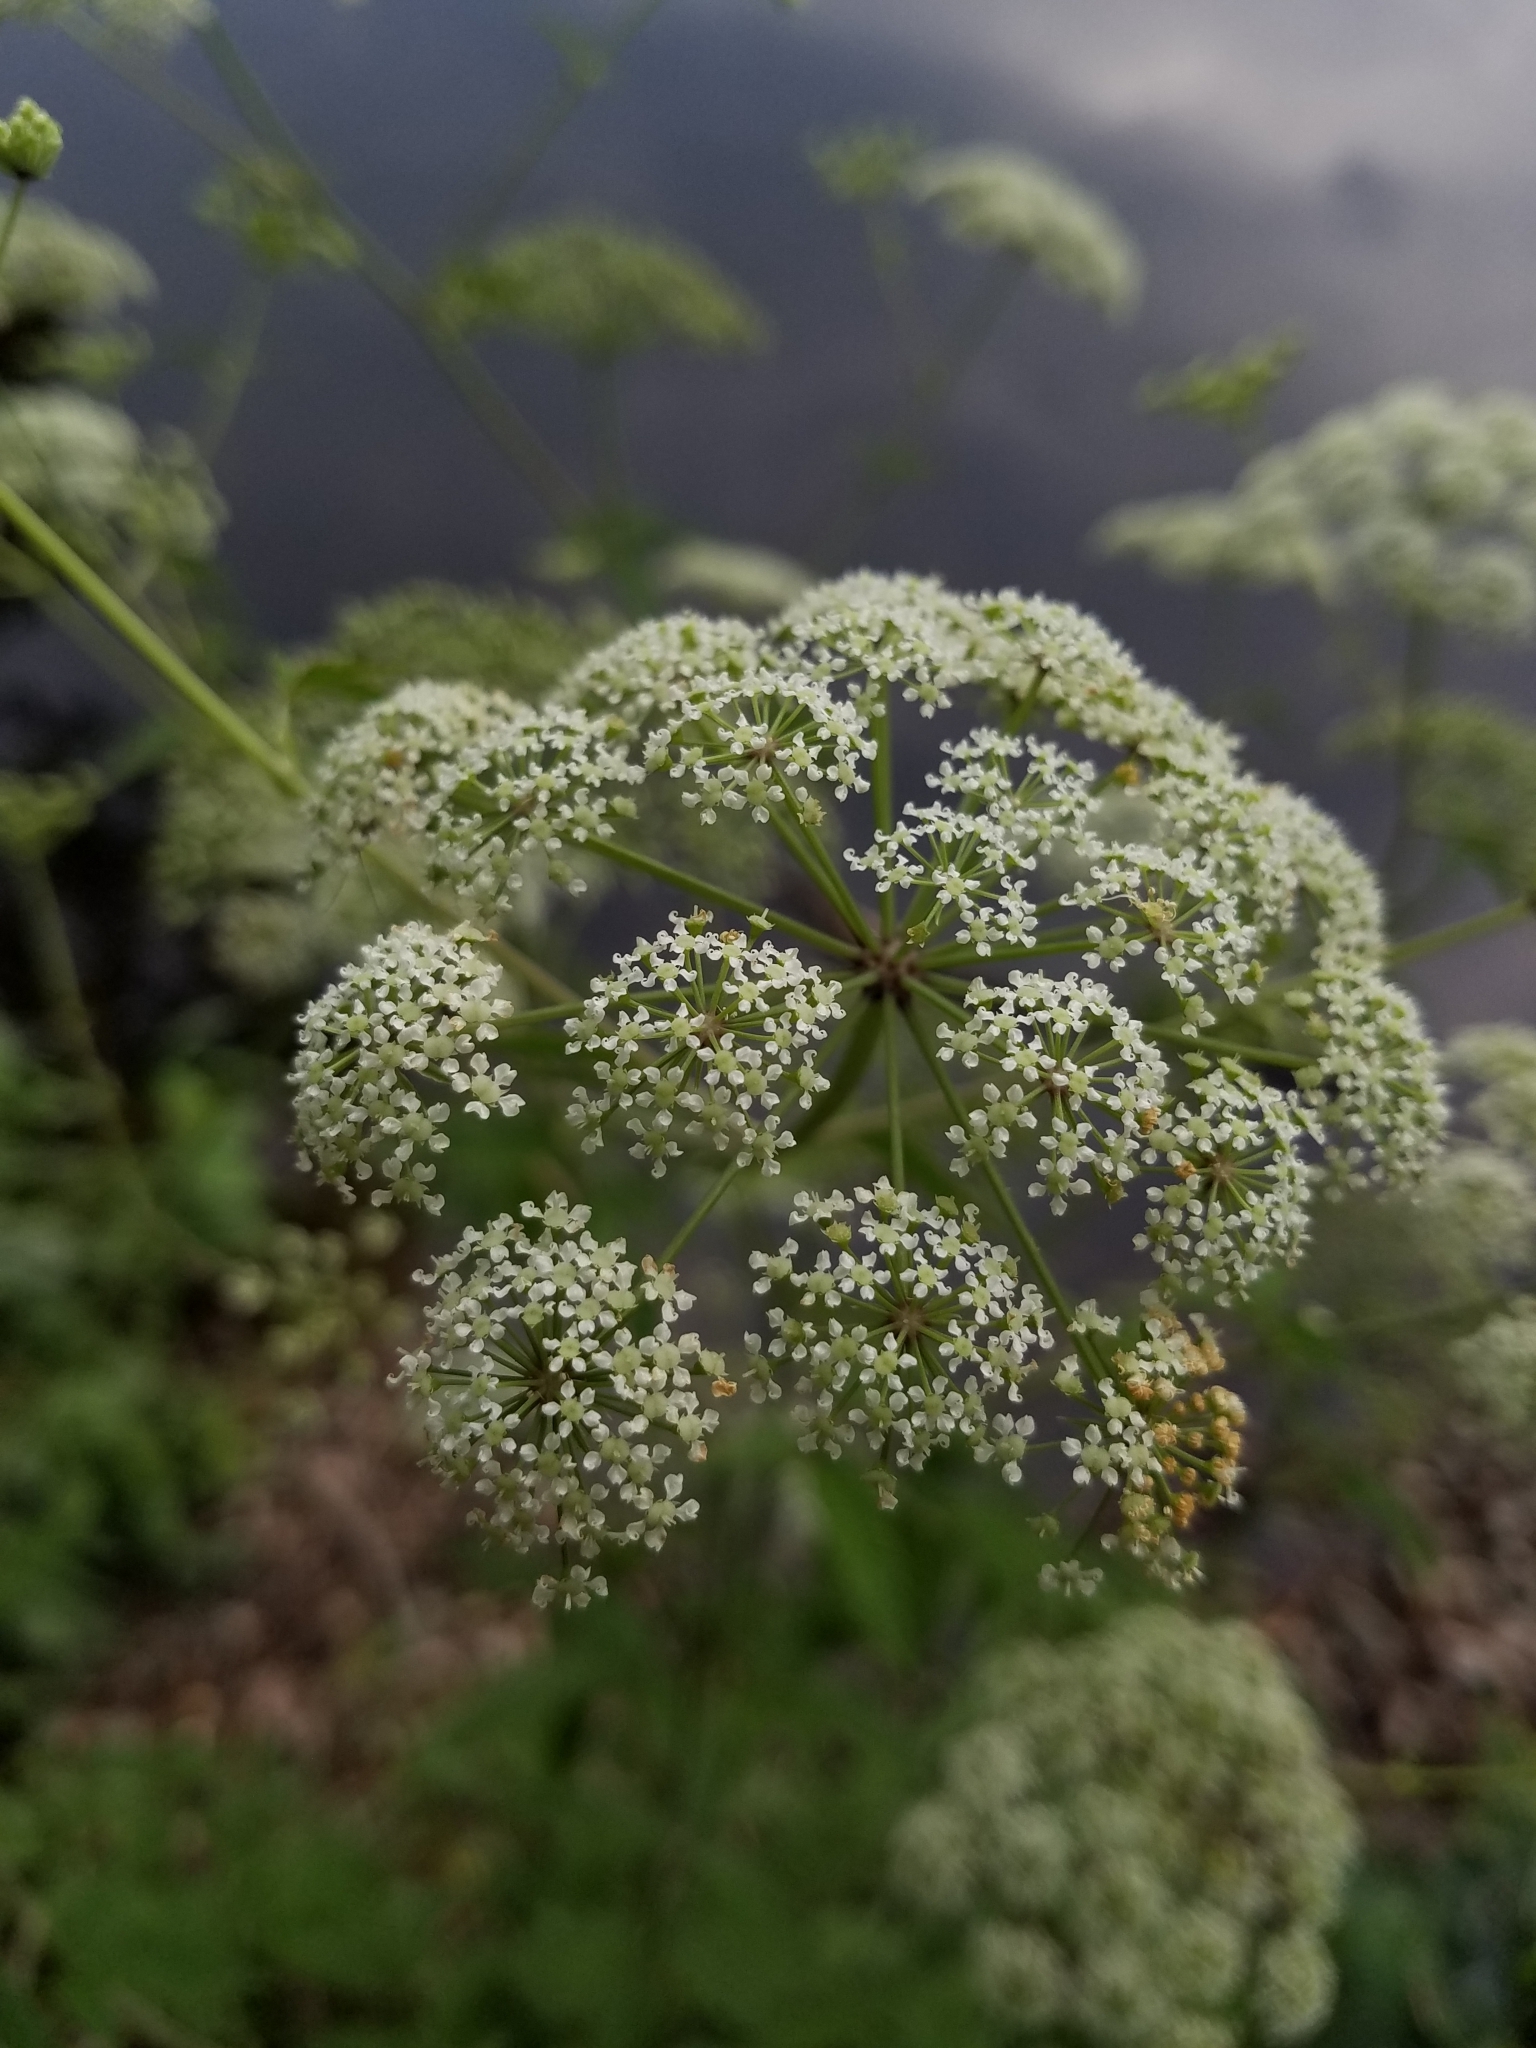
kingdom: Plantae
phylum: Tracheophyta
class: Magnoliopsida
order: Apiales
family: Apiaceae
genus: Cicuta
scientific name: Cicuta maculata
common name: Spotted cowbane
